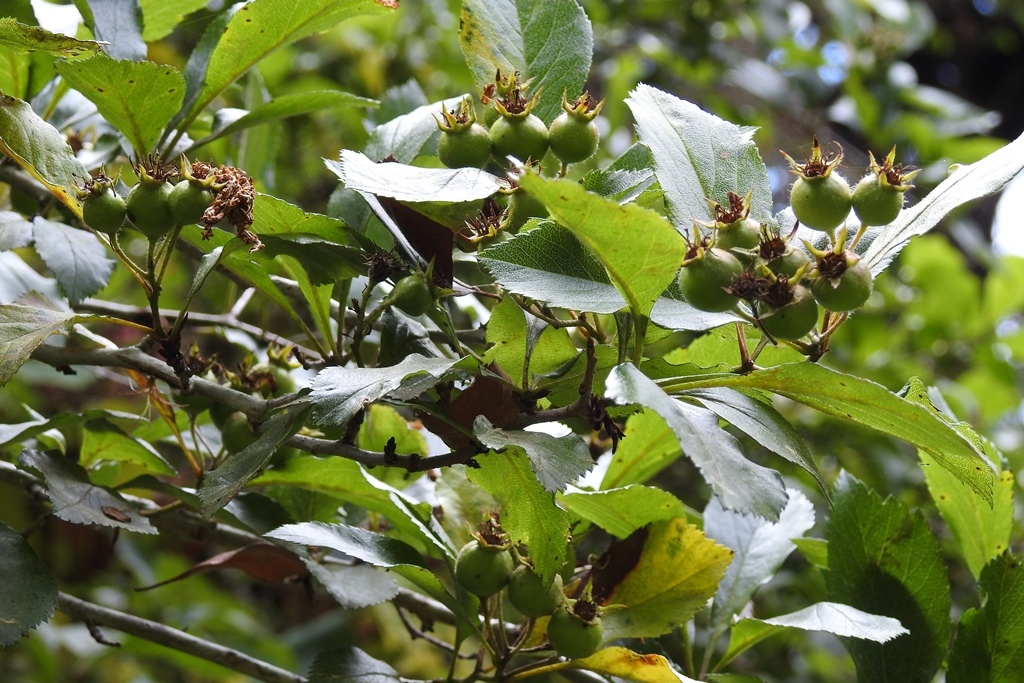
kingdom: Plantae
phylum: Tracheophyta
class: Magnoliopsida
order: Rosales
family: Rosaceae
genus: Crataegus
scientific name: Crataegus mexicana
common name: Mexican hawthorn
